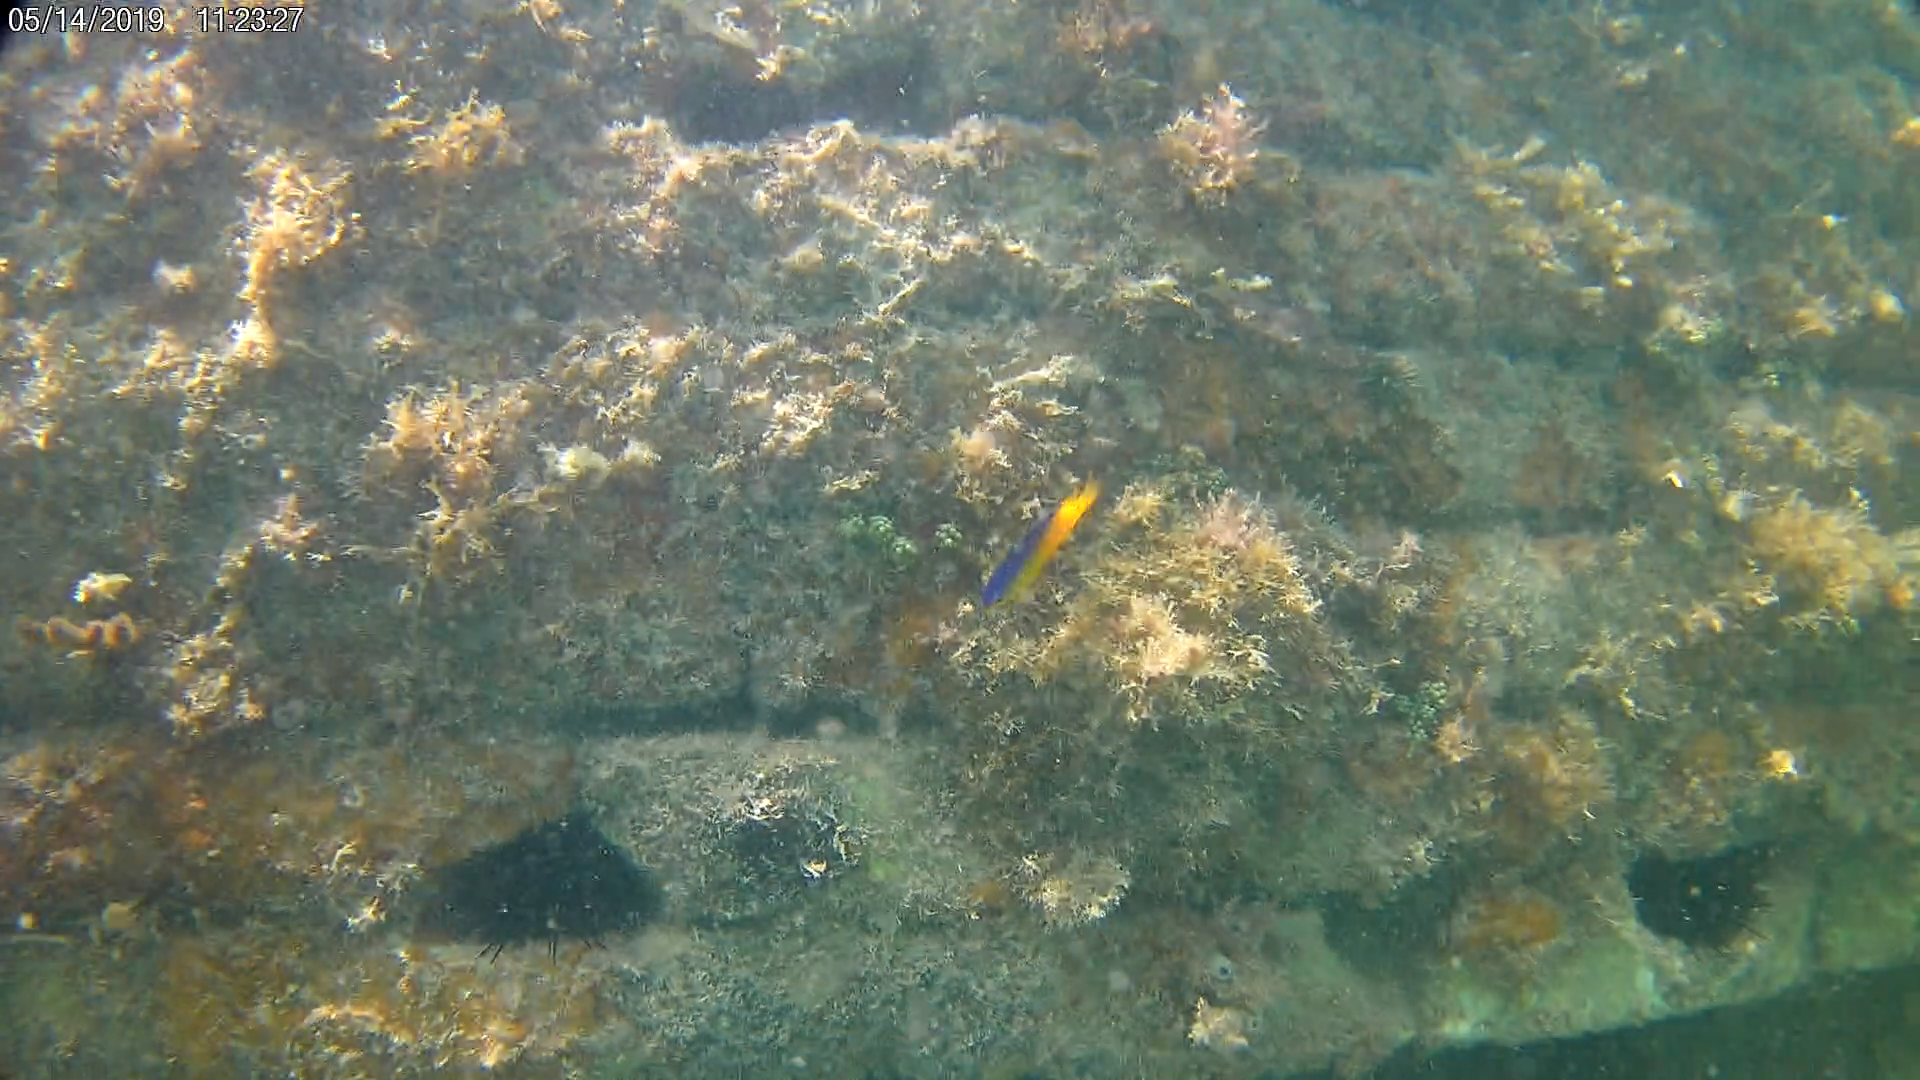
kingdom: Animalia
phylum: Chordata
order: Perciformes
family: Pomacentridae
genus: Stegastes
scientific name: Stegastes leucostictus
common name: Beaugregory
